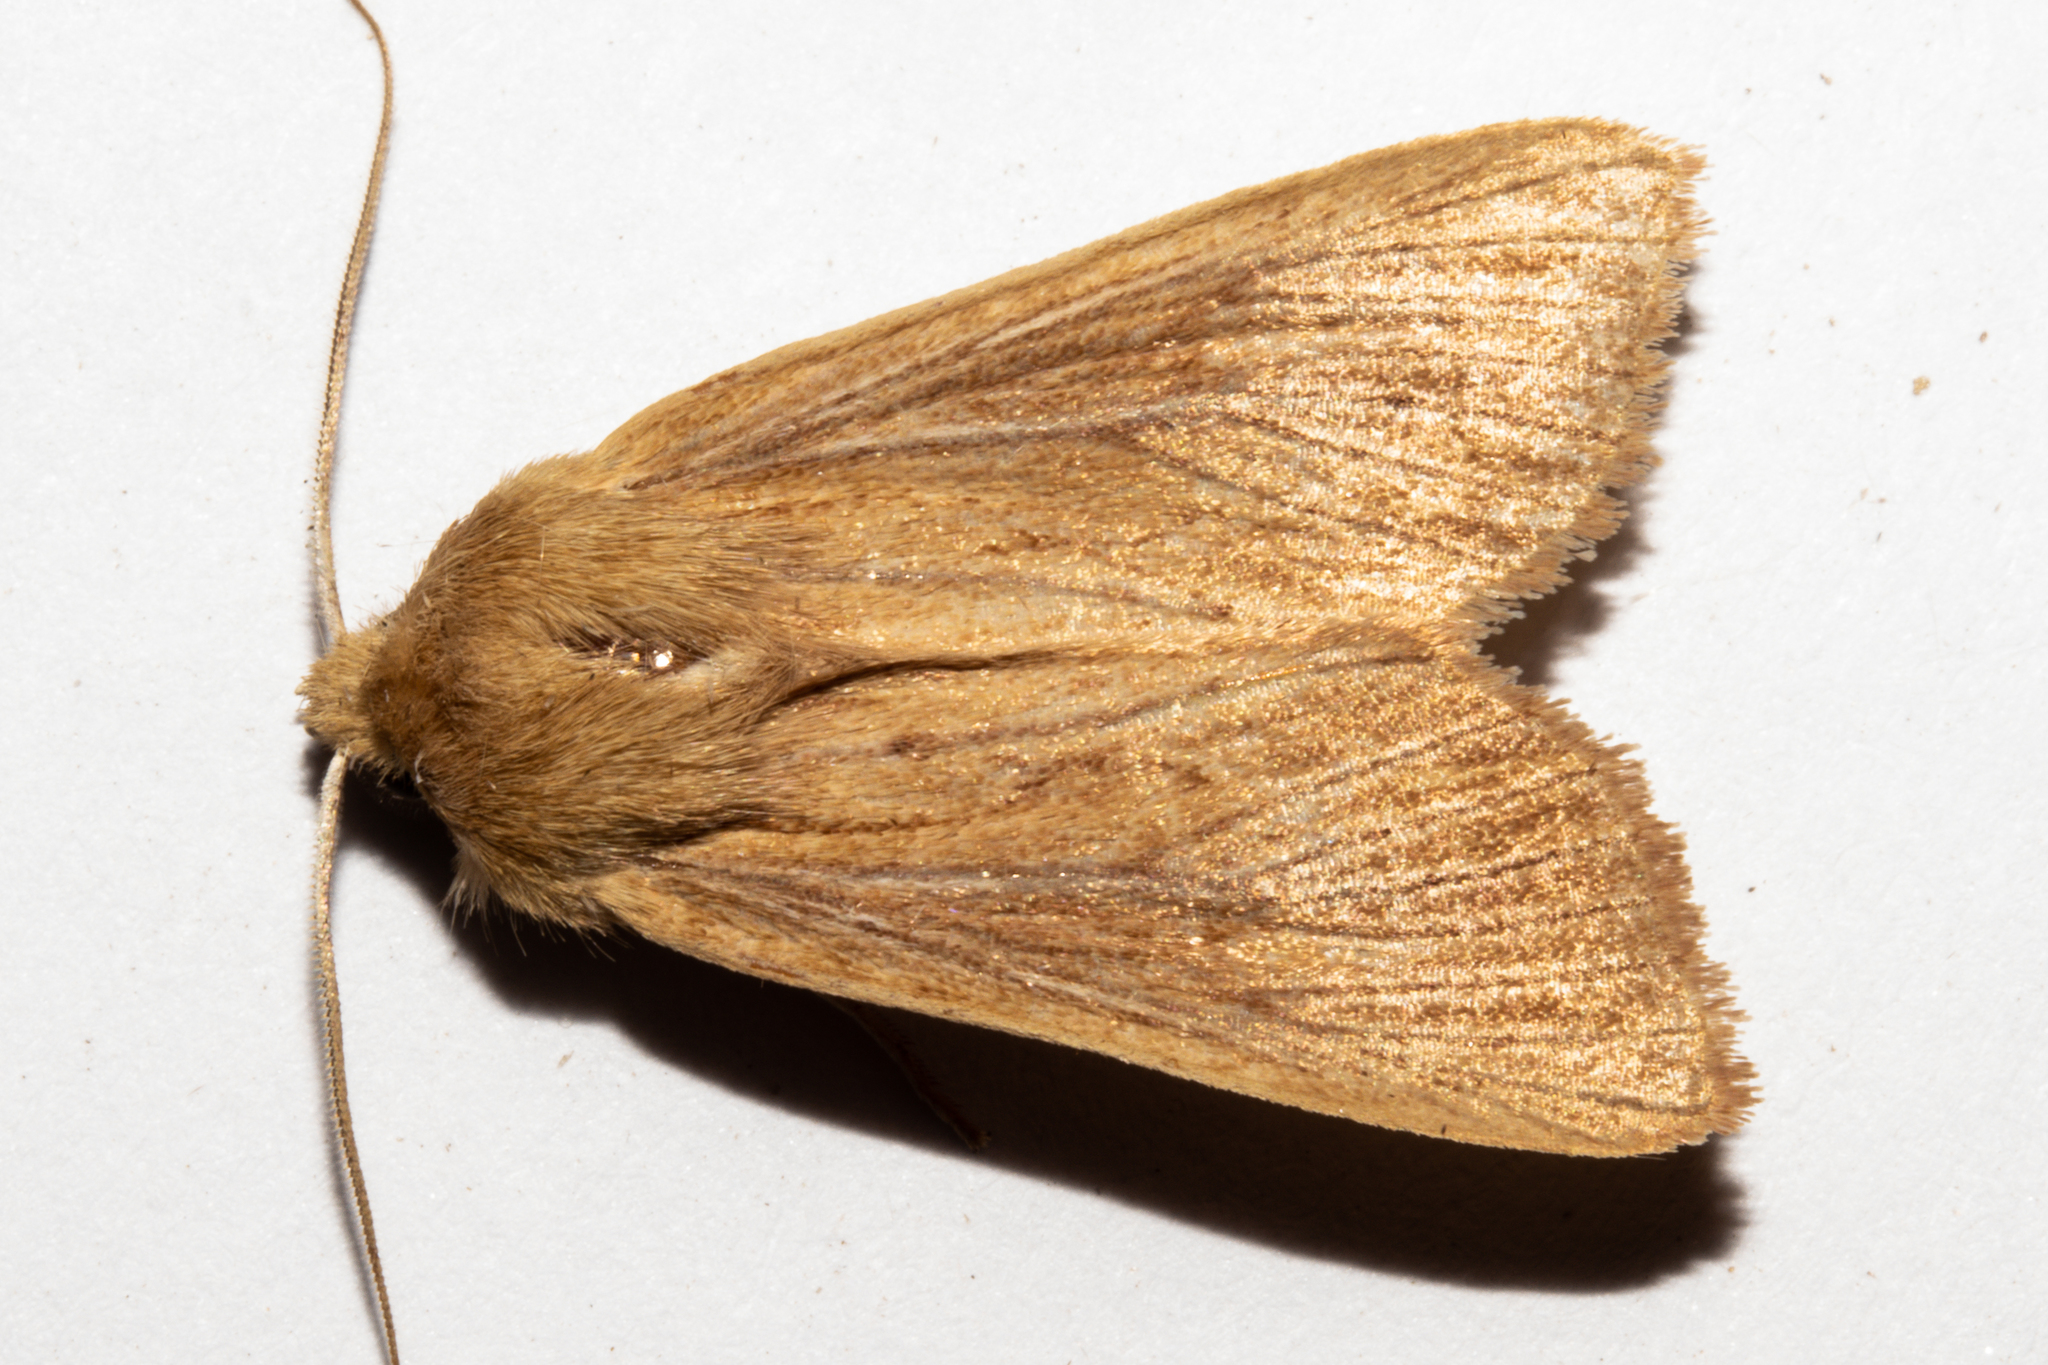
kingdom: Animalia
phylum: Arthropoda
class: Insecta
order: Lepidoptera
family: Noctuidae
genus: Ichneutica
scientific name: Ichneutica arotis
